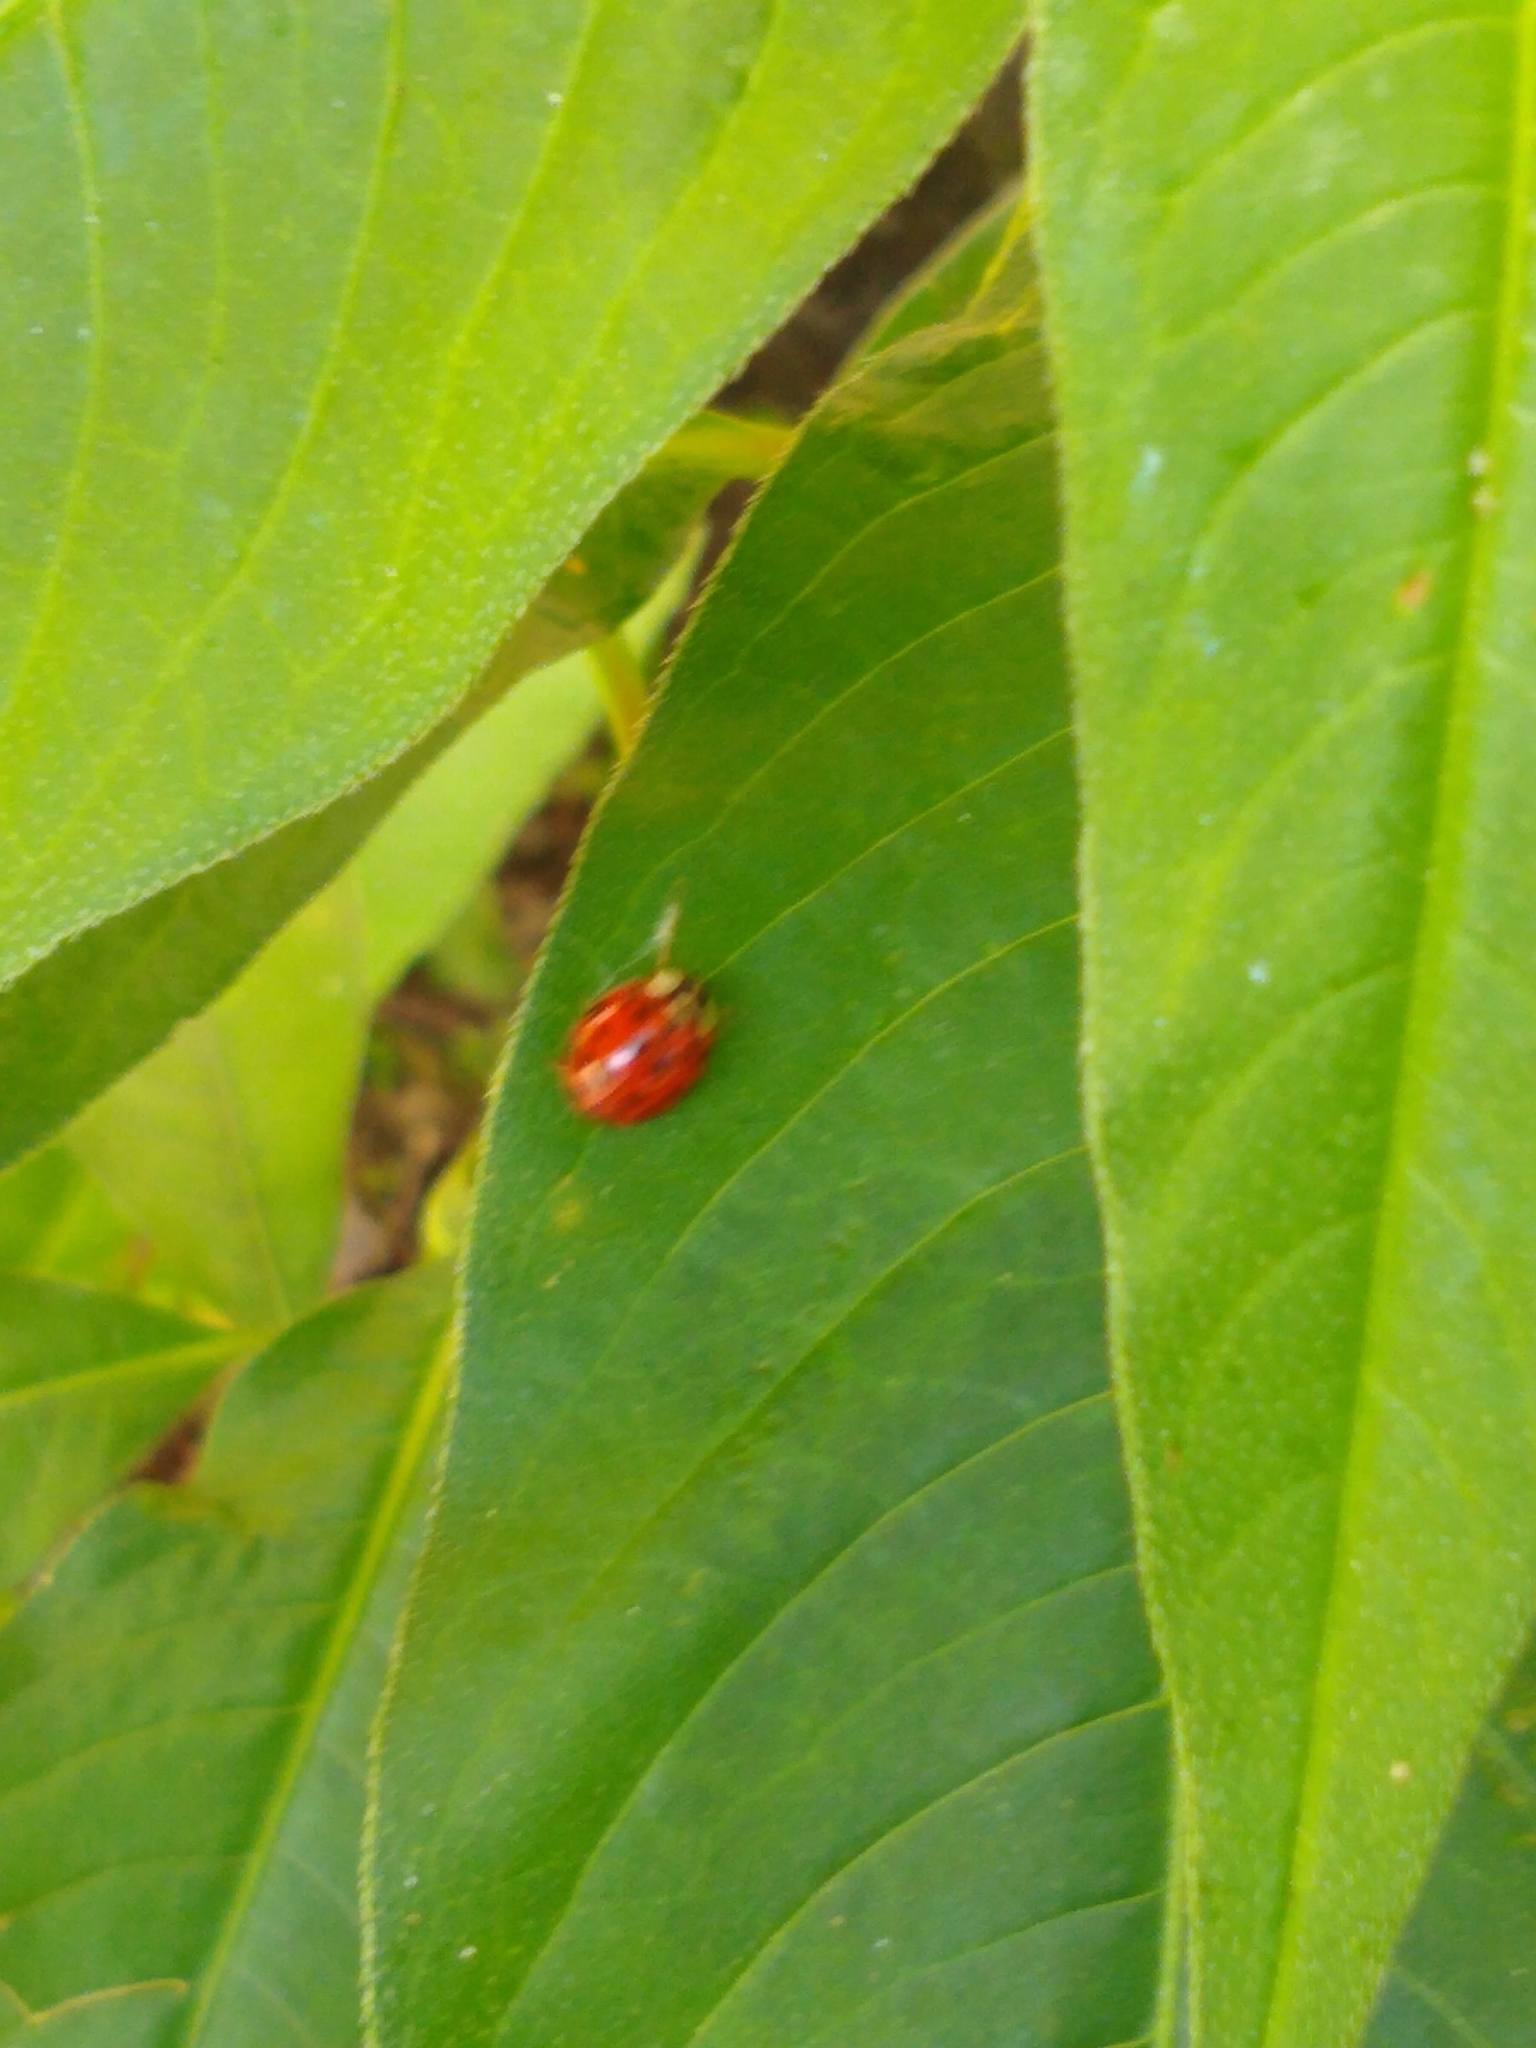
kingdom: Animalia
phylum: Arthropoda
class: Insecta
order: Coleoptera
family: Coccinellidae
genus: Harmonia
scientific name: Harmonia axyridis
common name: Harlequin ladybird
